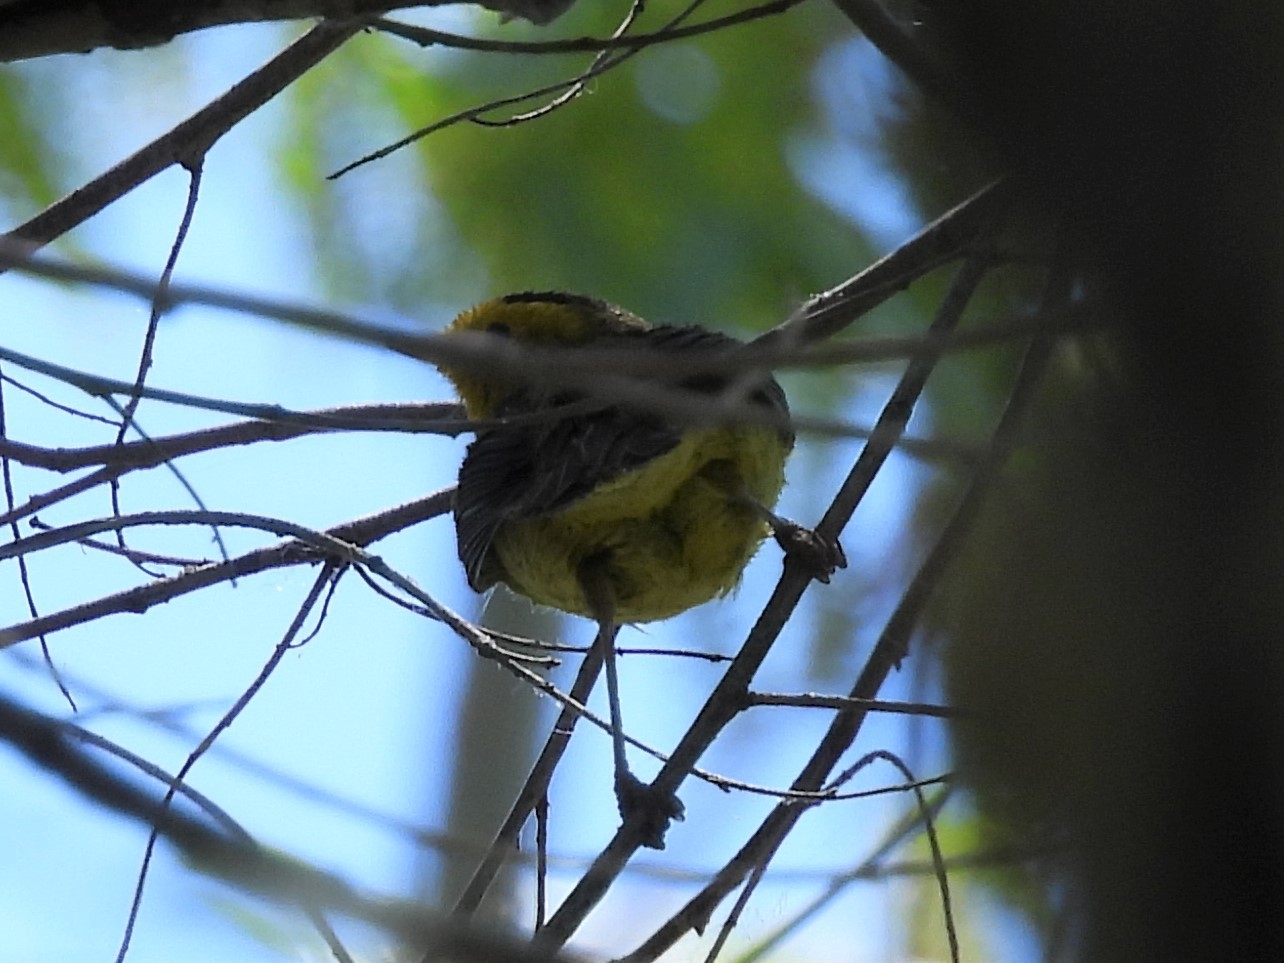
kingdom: Animalia
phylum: Chordata
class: Aves
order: Passeriformes
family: Parulidae
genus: Cardellina
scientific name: Cardellina pusilla
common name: Wilson's warbler
